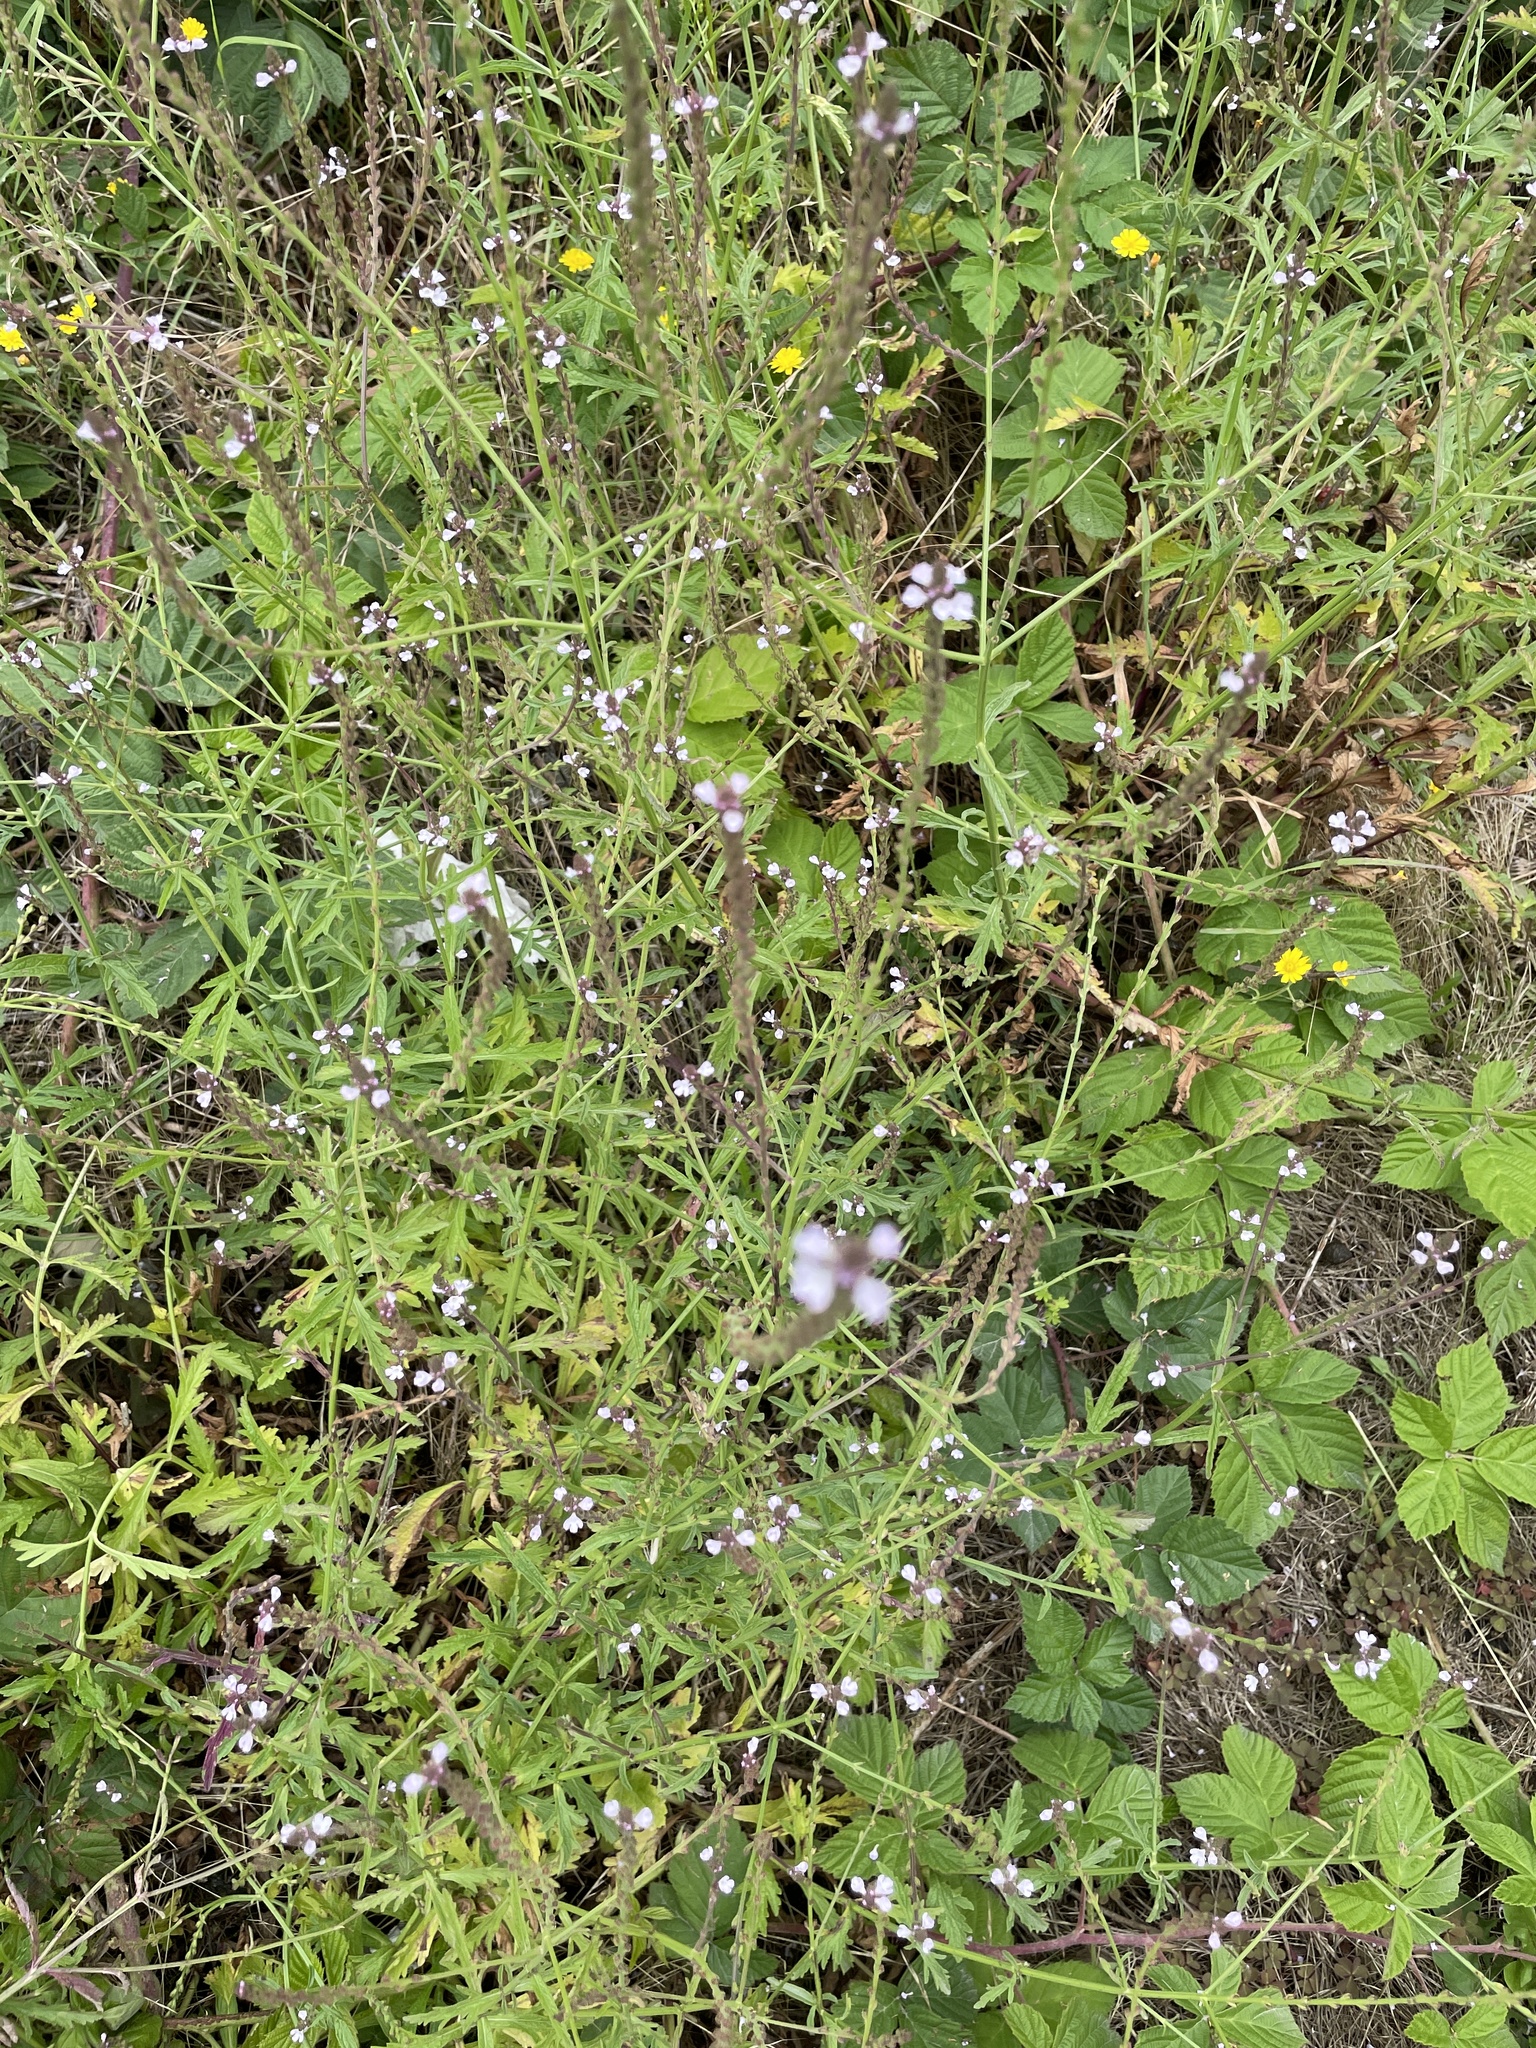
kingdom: Plantae
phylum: Tracheophyta
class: Magnoliopsida
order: Lamiales
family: Verbenaceae
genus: Verbena
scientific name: Verbena officinalis
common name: Vervain
